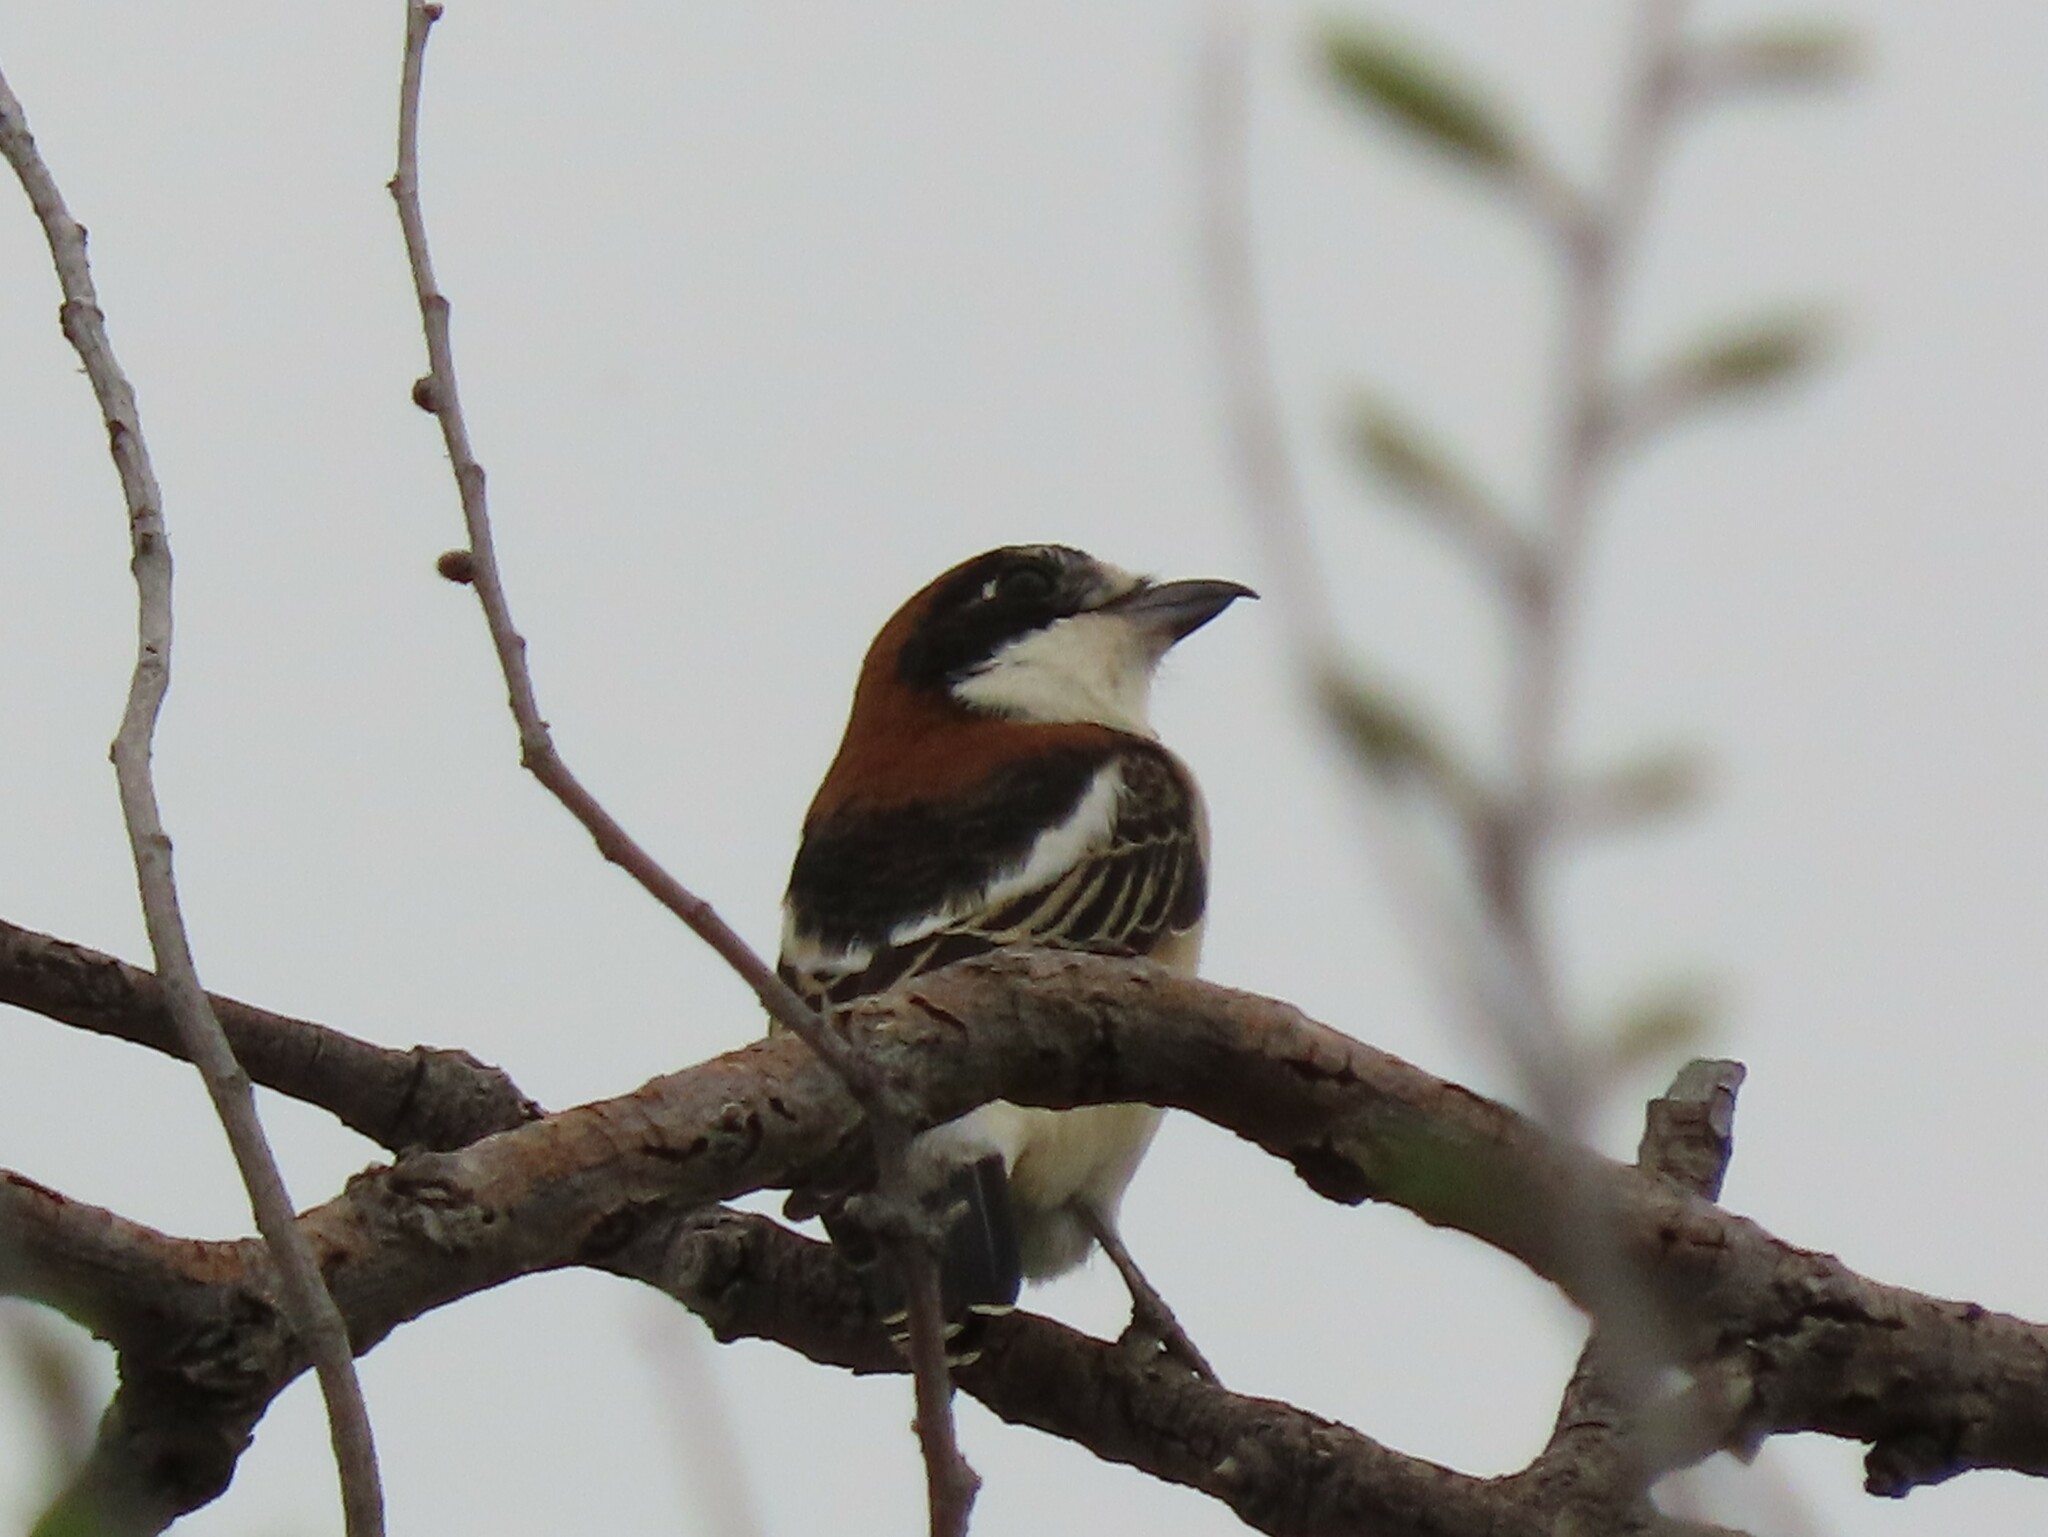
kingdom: Animalia
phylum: Chordata
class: Aves
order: Passeriformes
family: Laniidae
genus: Lanius
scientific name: Lanius senator
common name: Woodchat shrike
